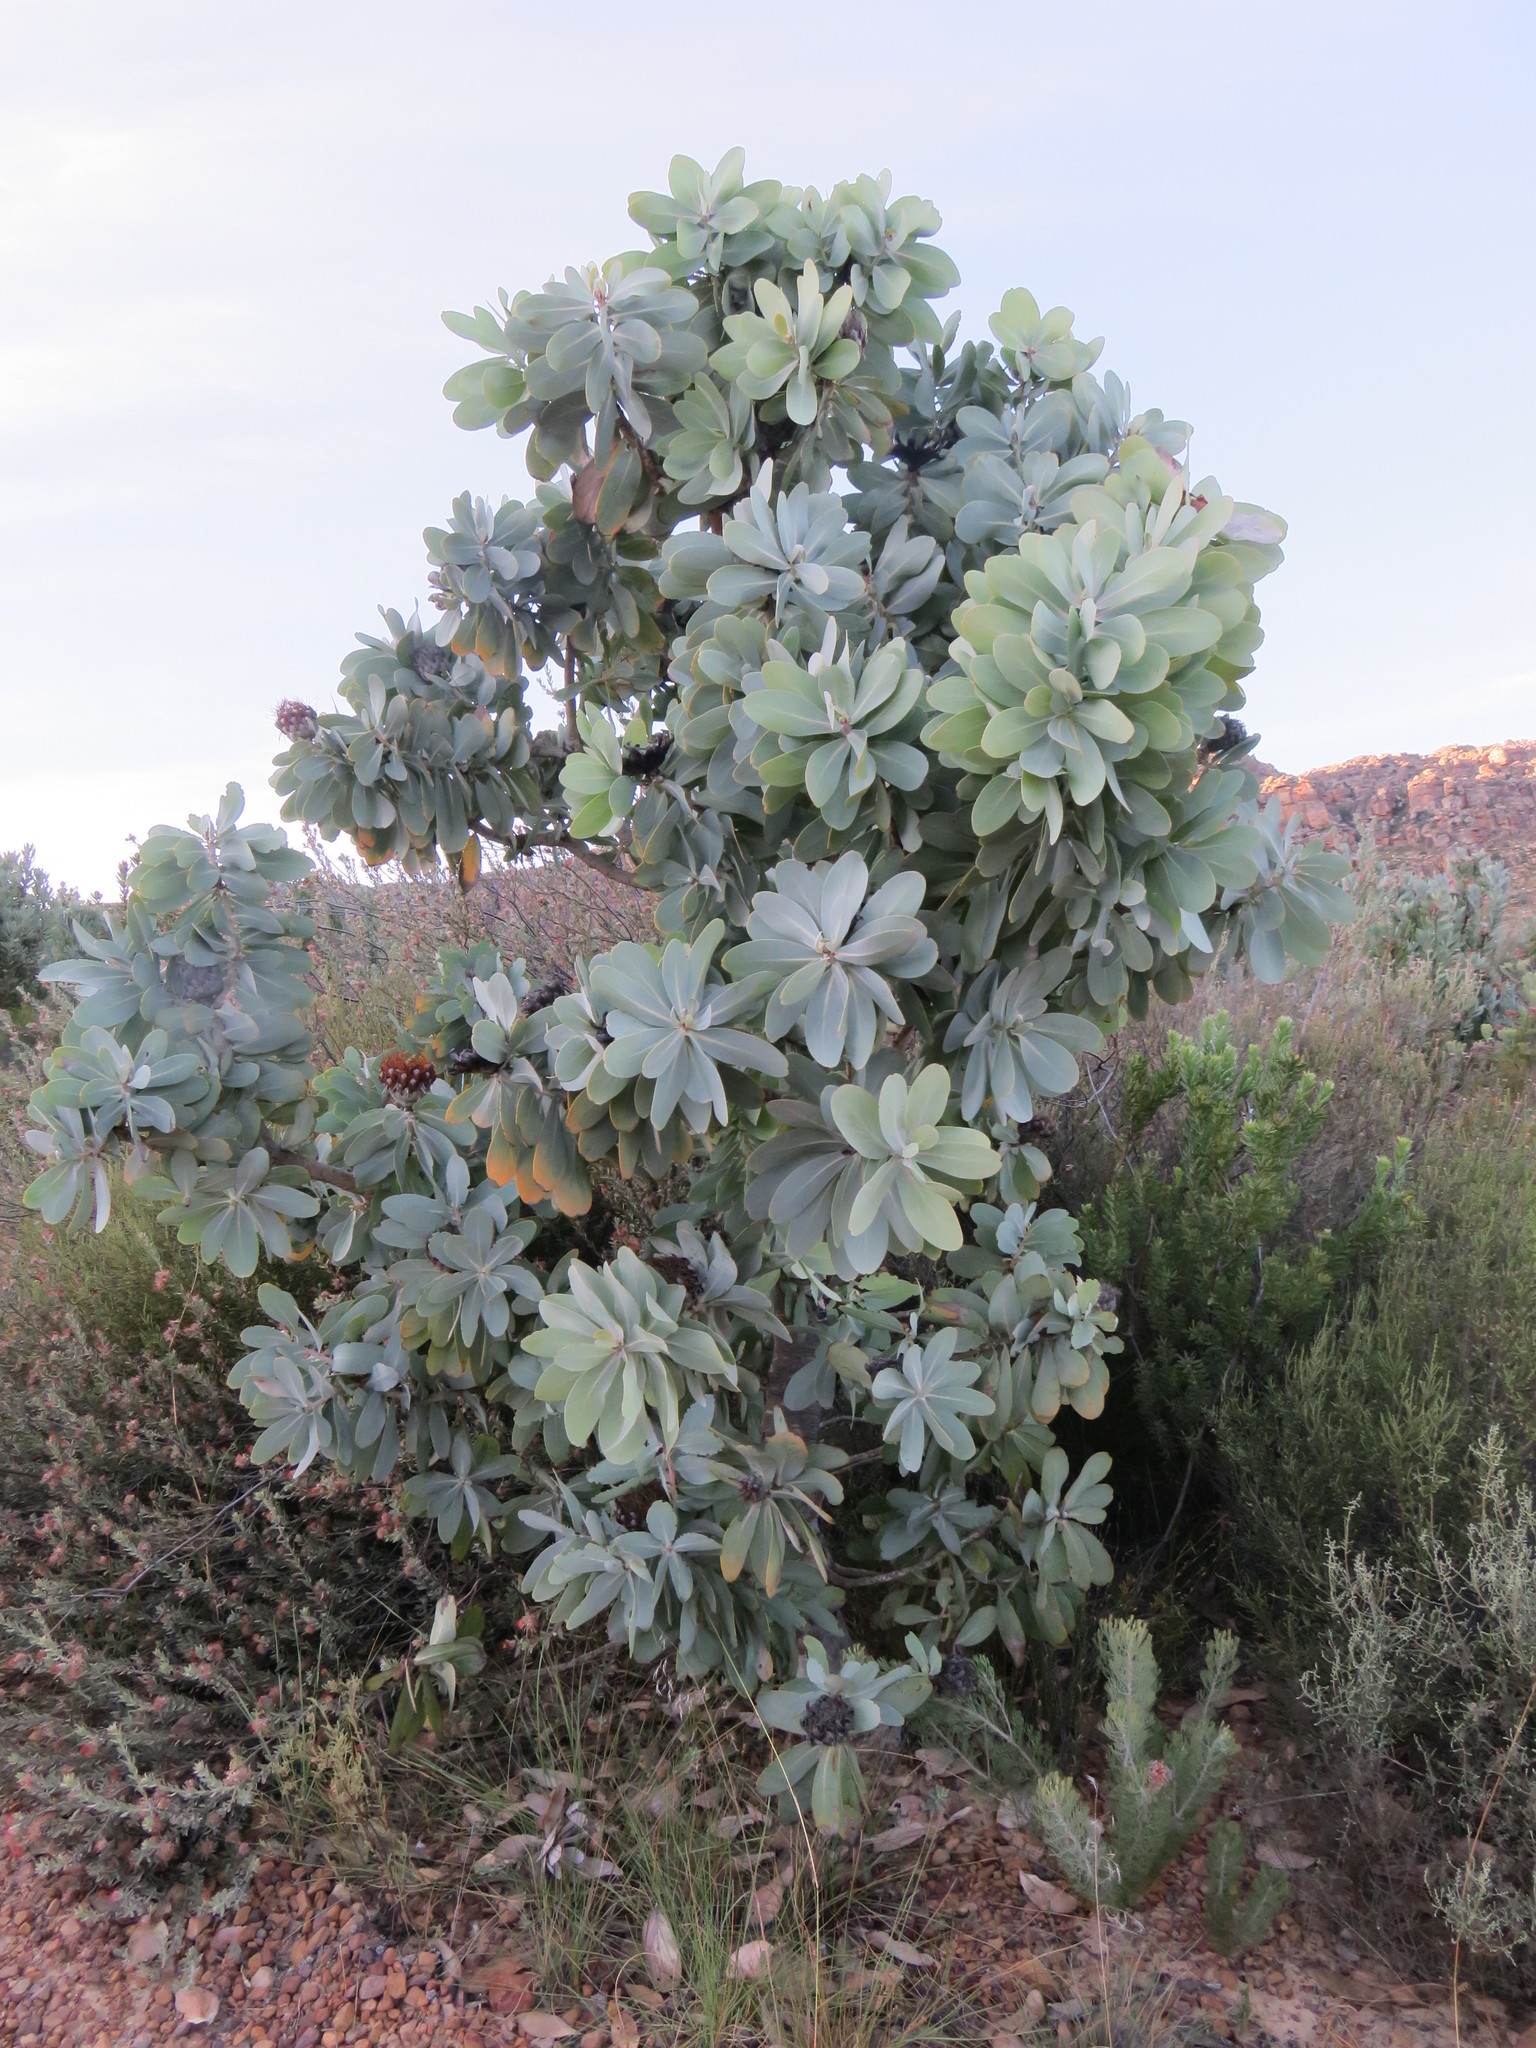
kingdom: Plantae
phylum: Tracheophyta
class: Magnoliopsida
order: Proteales
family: Proteaceae
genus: Protea
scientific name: Protea nitida
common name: Tree protea
